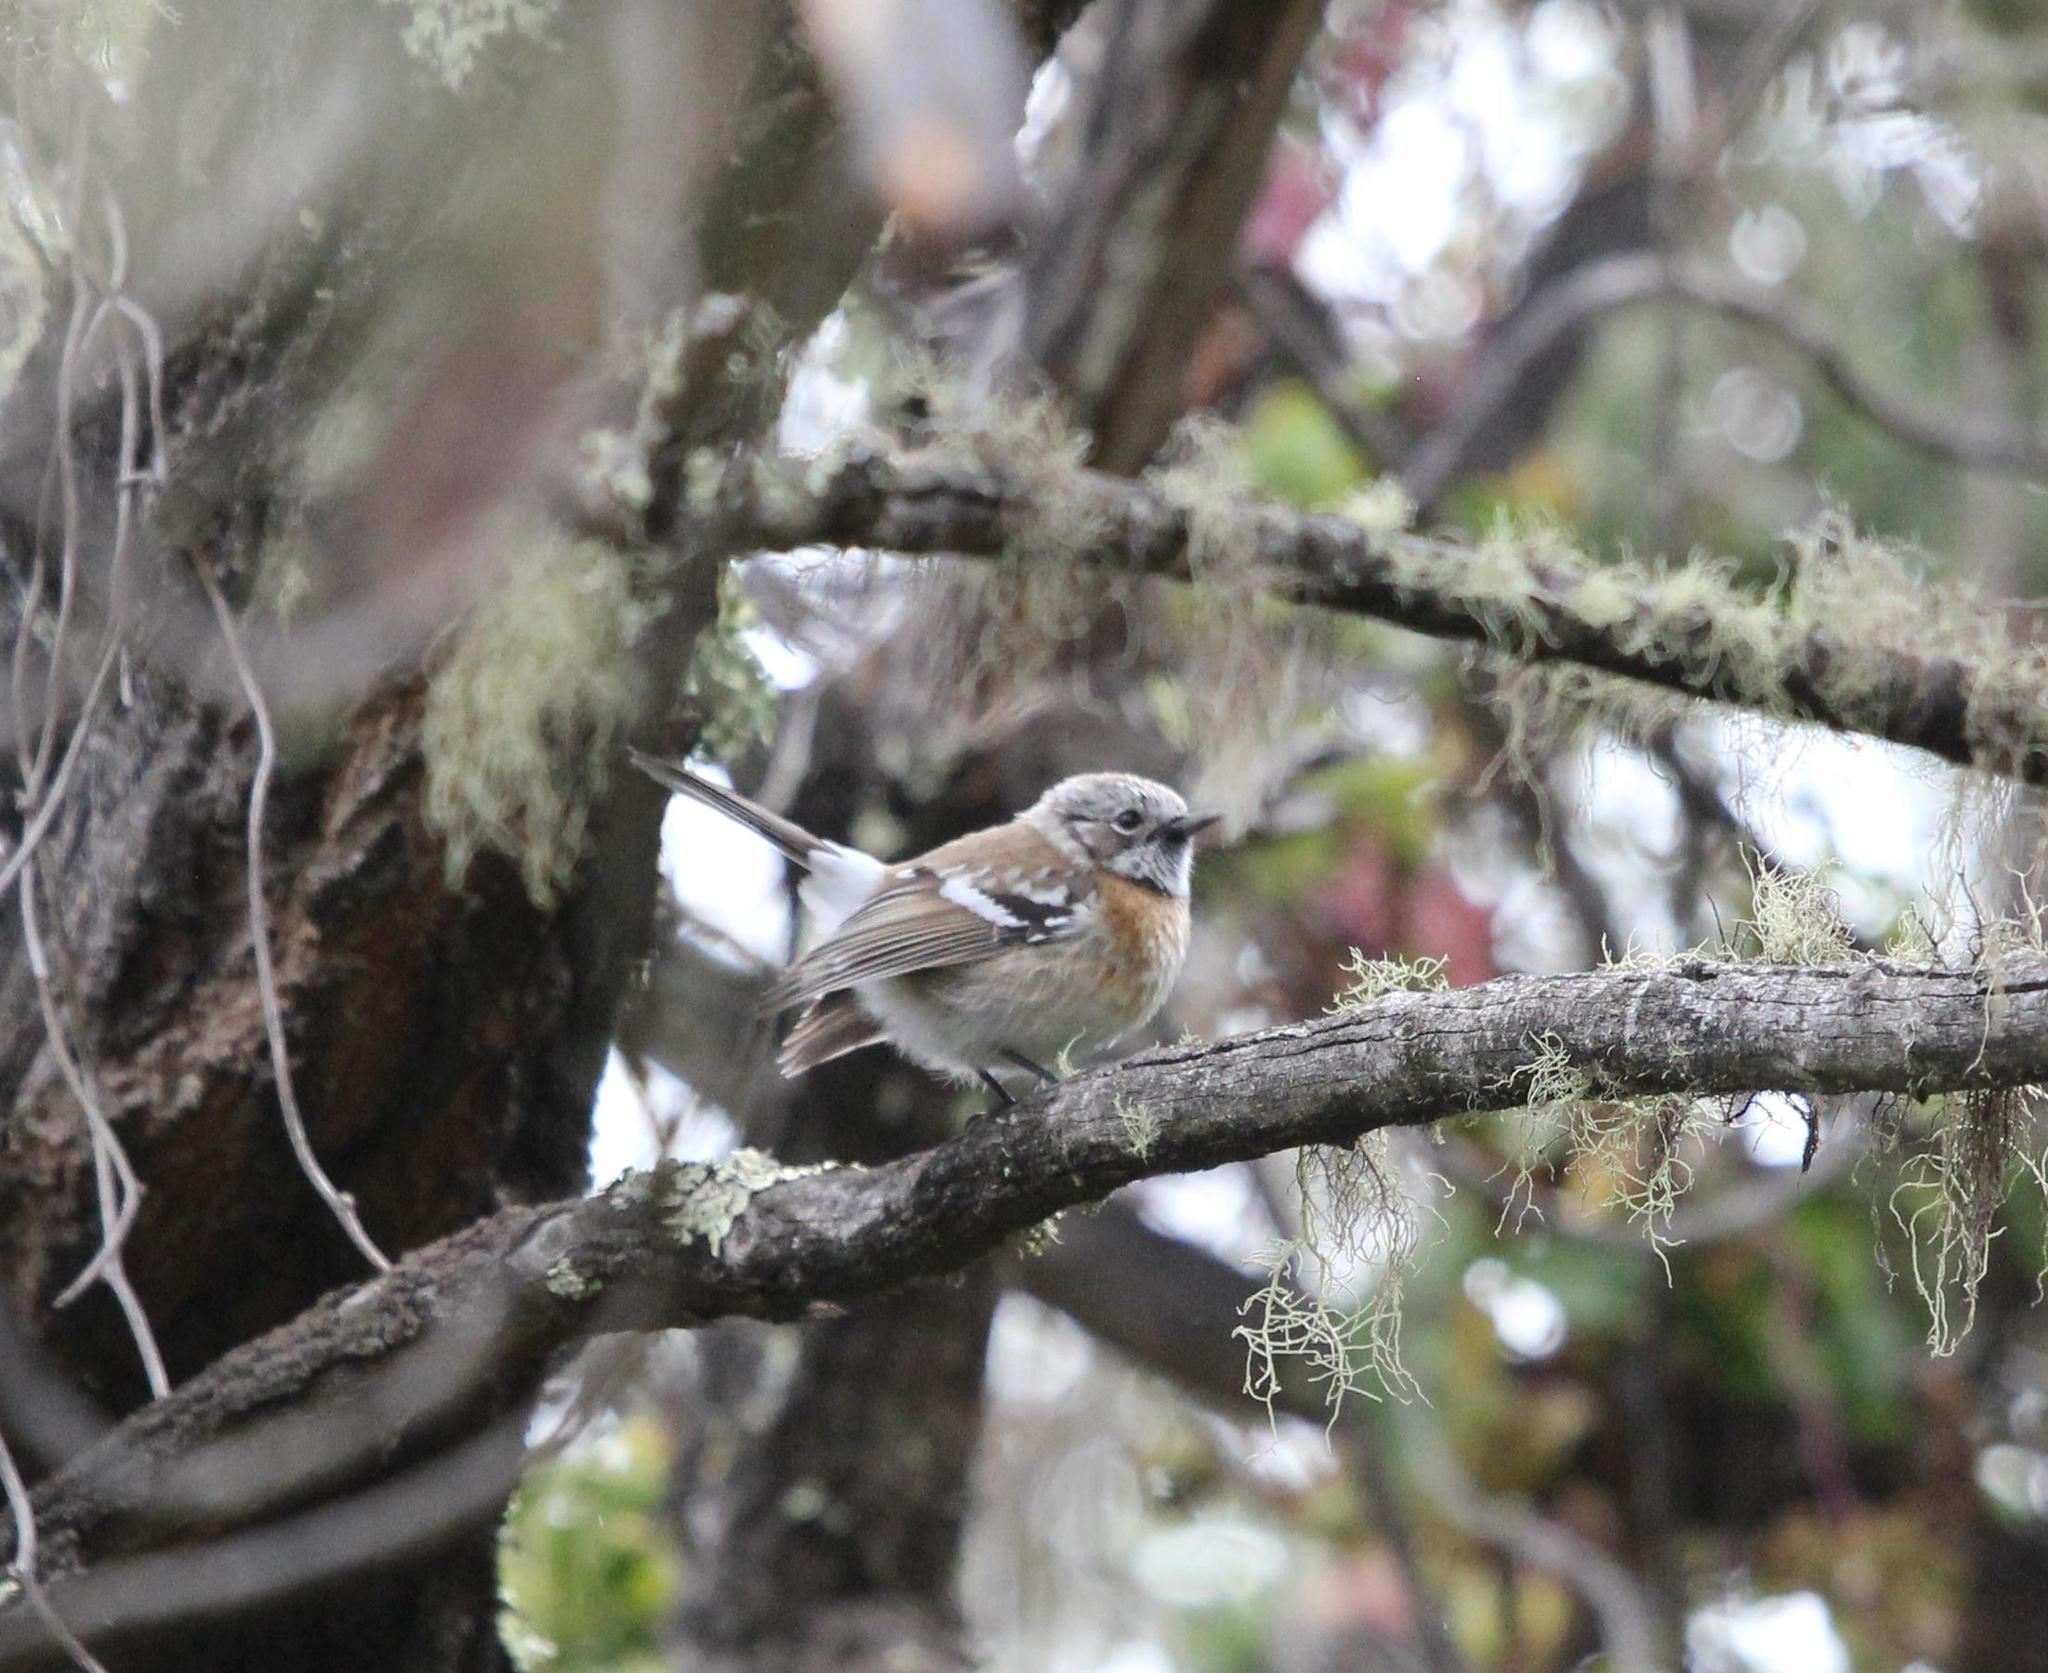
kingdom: Animalia
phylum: Chordata
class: Aves
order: Passeriformes
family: Monarchidae
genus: Chasiempis
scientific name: Chasiempis sandwichensis
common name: Hawaii elepaio
